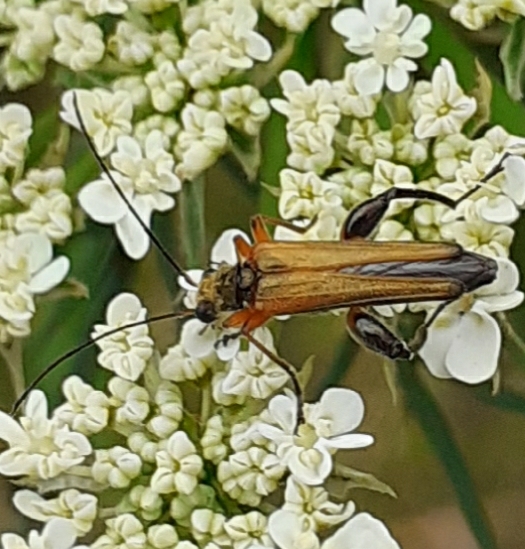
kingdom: Animalia
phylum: Arthropoda
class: Insecta
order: Coleoptera
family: Oedemeridae
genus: Oedemera
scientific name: Oedemera podagrariae
